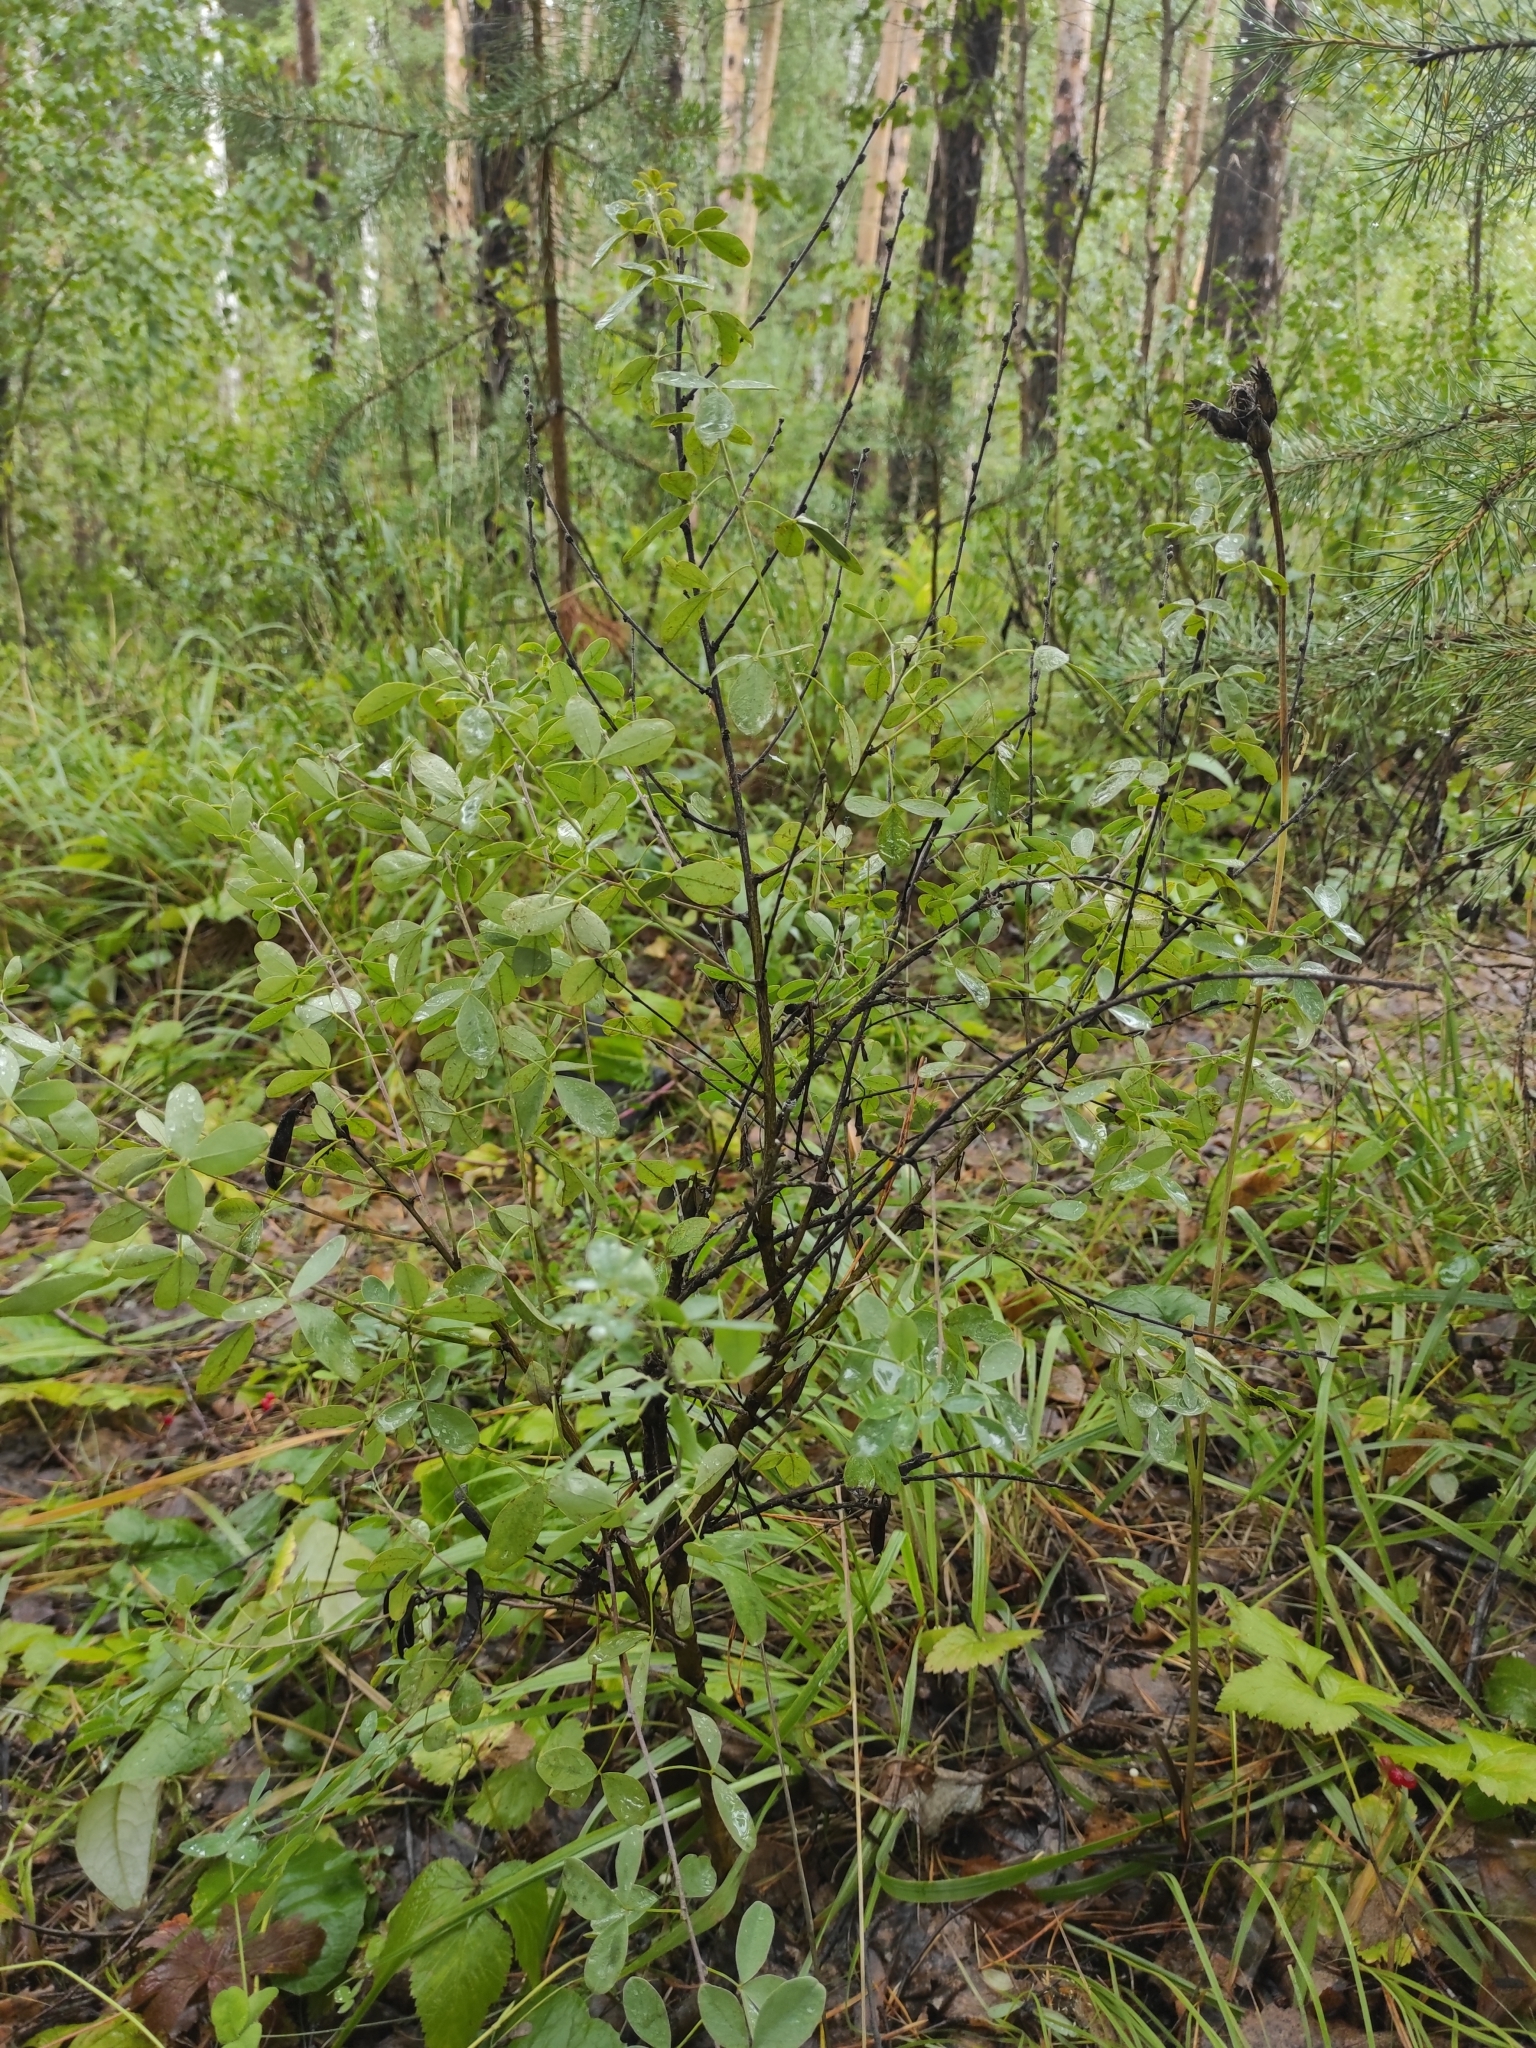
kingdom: Plantae
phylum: Tracheophyta
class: Magnoliopsida
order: Fabales
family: Fabaceae
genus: Chamaecytisus
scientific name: Chamaecytisus ruthenicus
